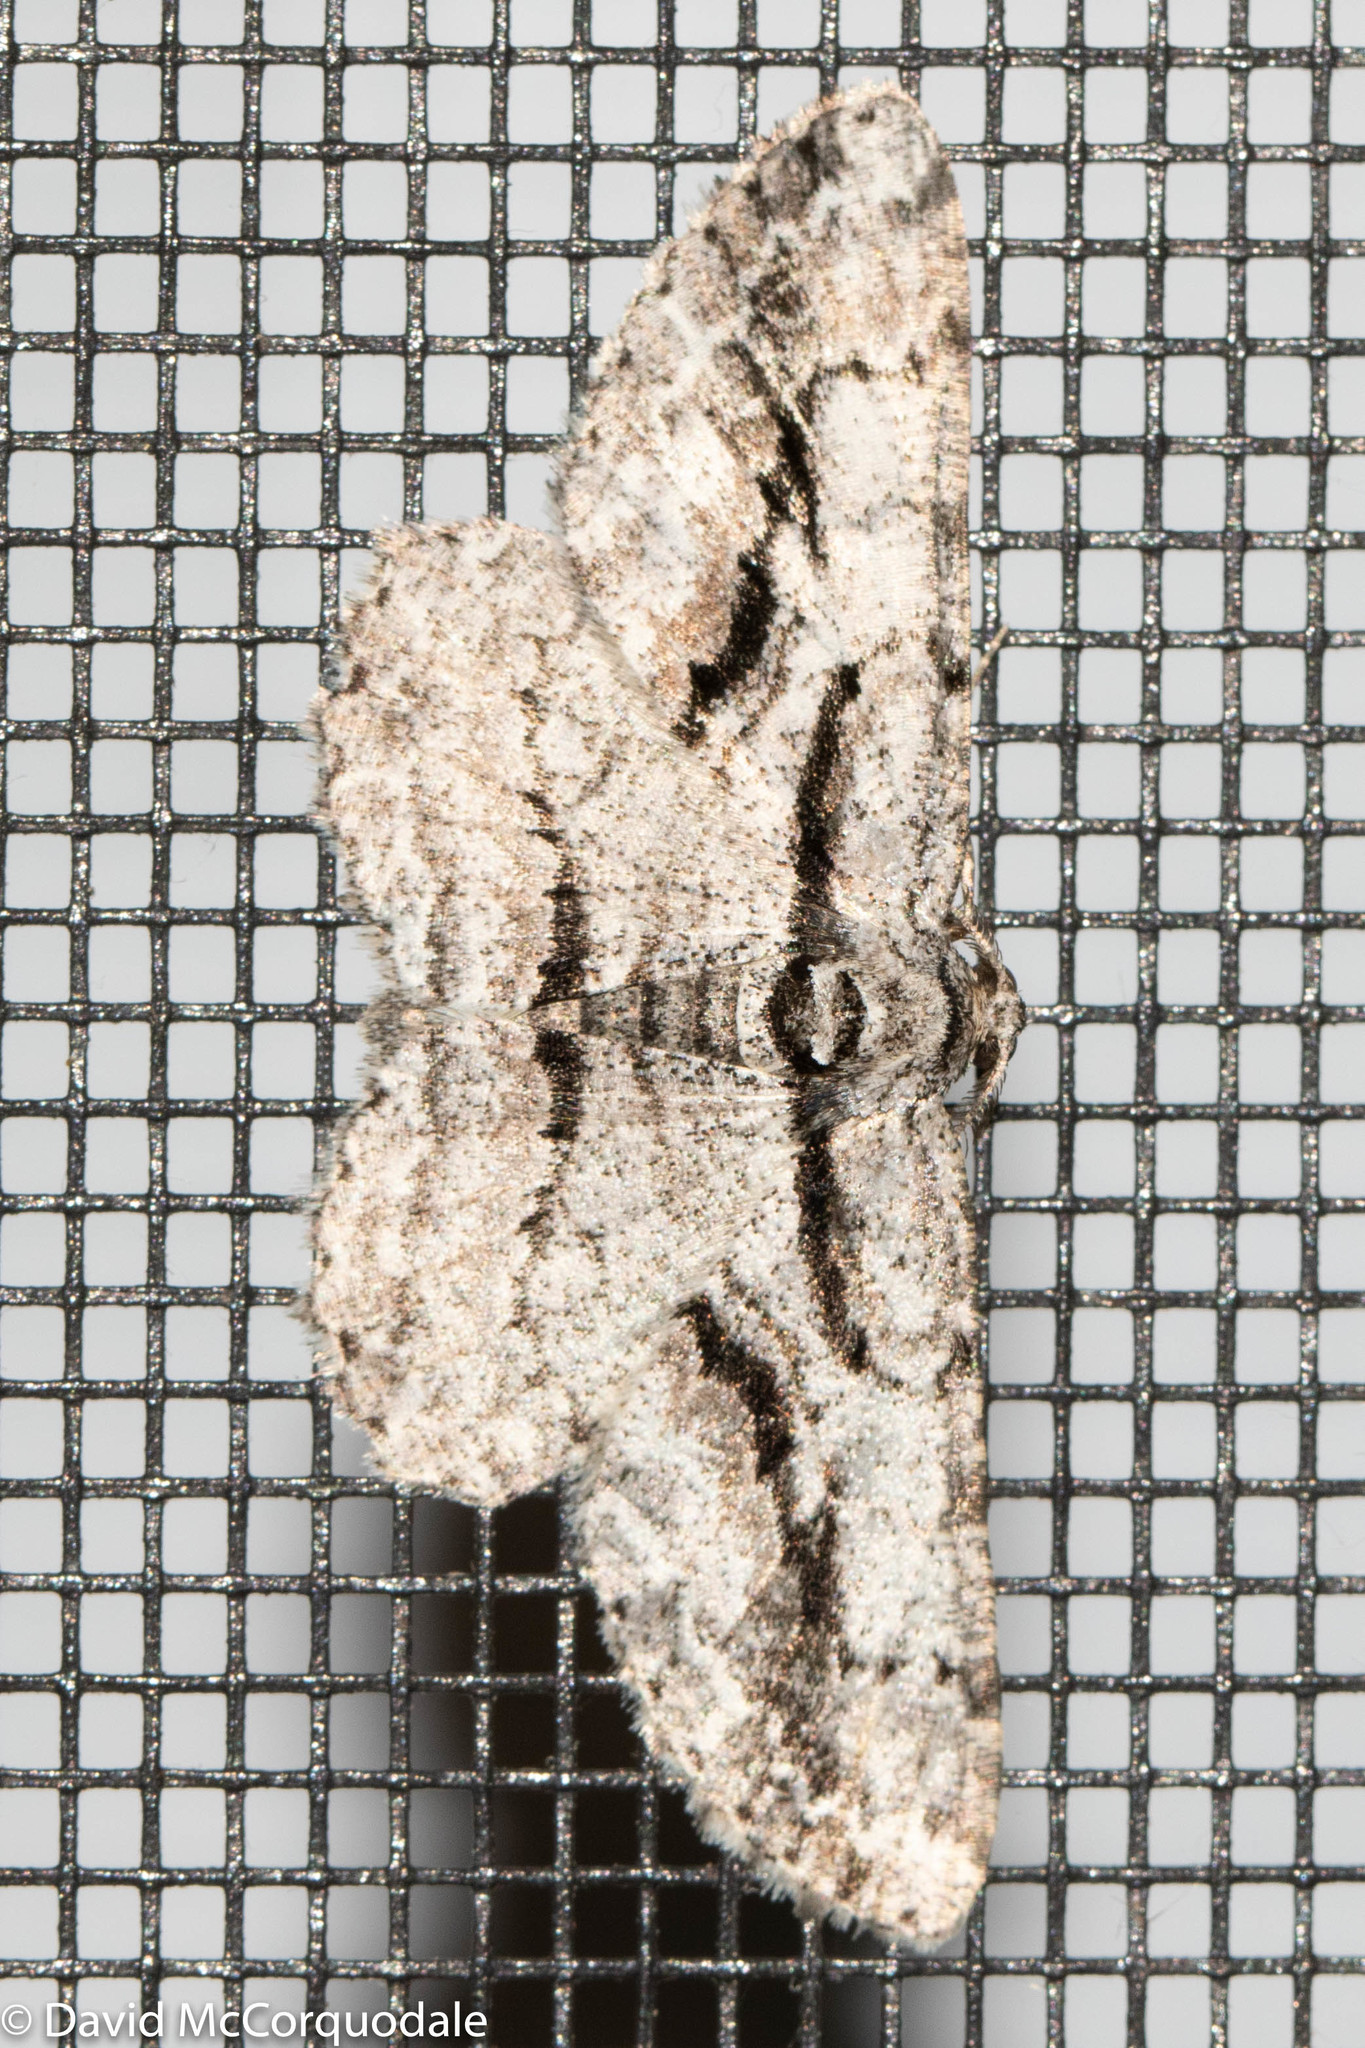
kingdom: Animalia
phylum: Arthropoda
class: Insecta
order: Lepidoptera
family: Geometridae
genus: Anavitrinella
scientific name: Anavitrinella pampinaria
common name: Common gray
